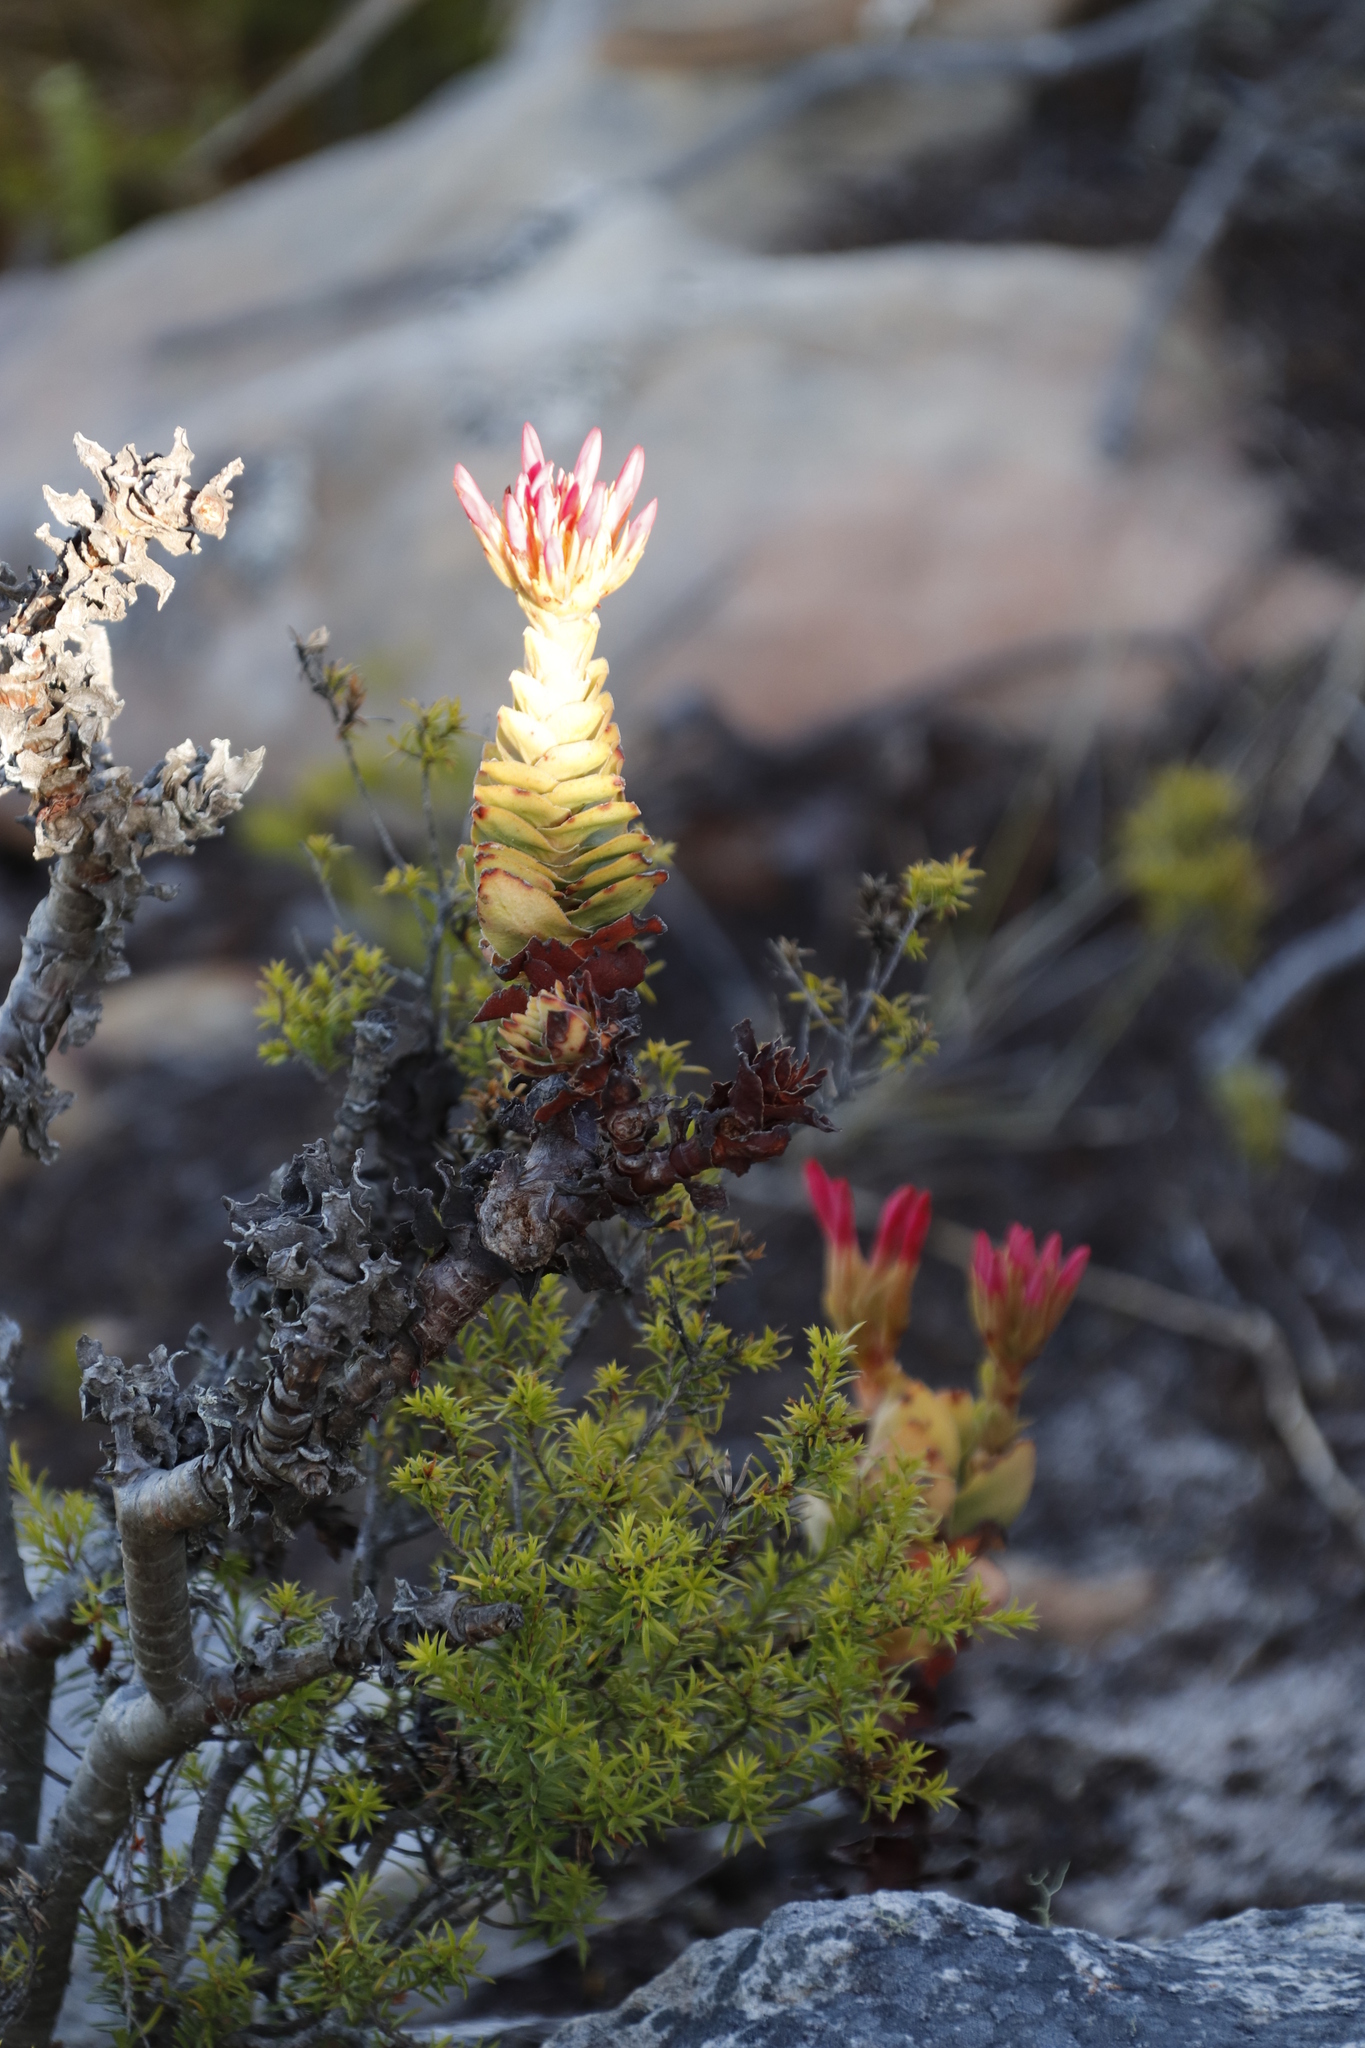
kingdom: Plantae
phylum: Tracheophyta
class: Magnoliopsida
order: Saxifragales
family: Crassulaceae
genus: Crassula
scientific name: Crassula coccinea
